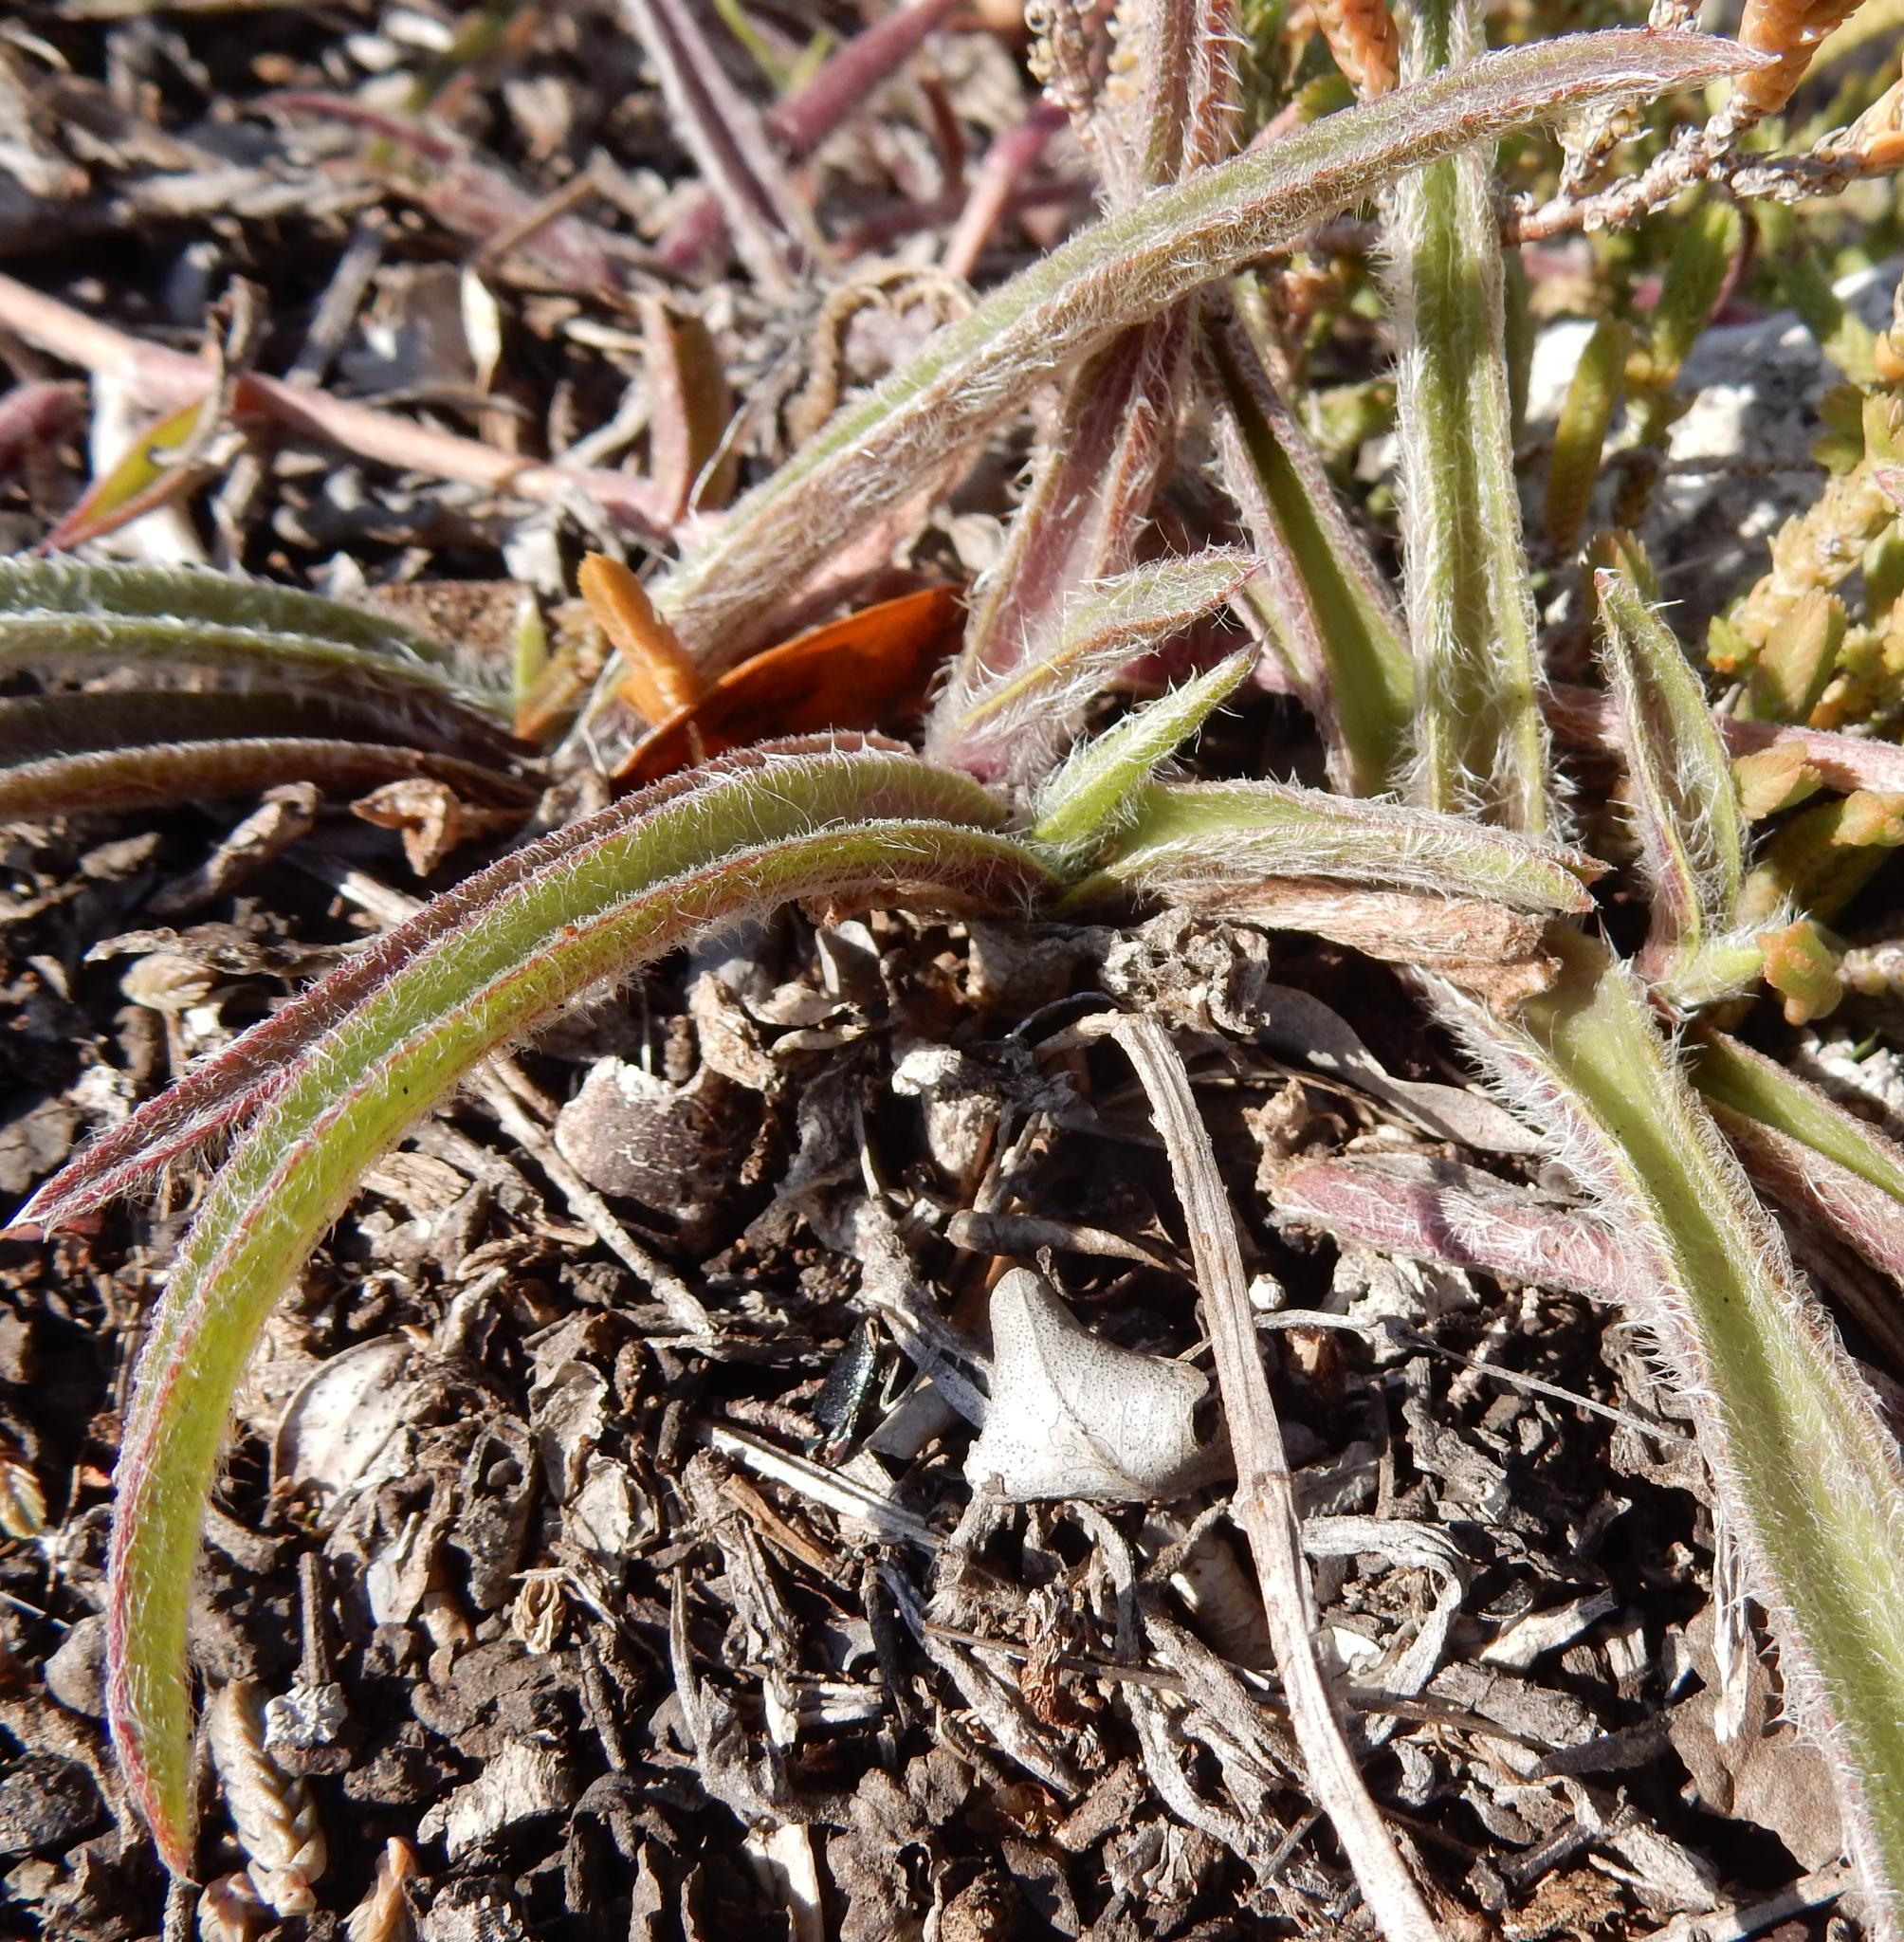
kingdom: Plantae
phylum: Tracheophyta
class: Liliopsida
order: Commelinales
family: Commelinaceae
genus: Cyanotis
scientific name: Cyanotis speciosa
